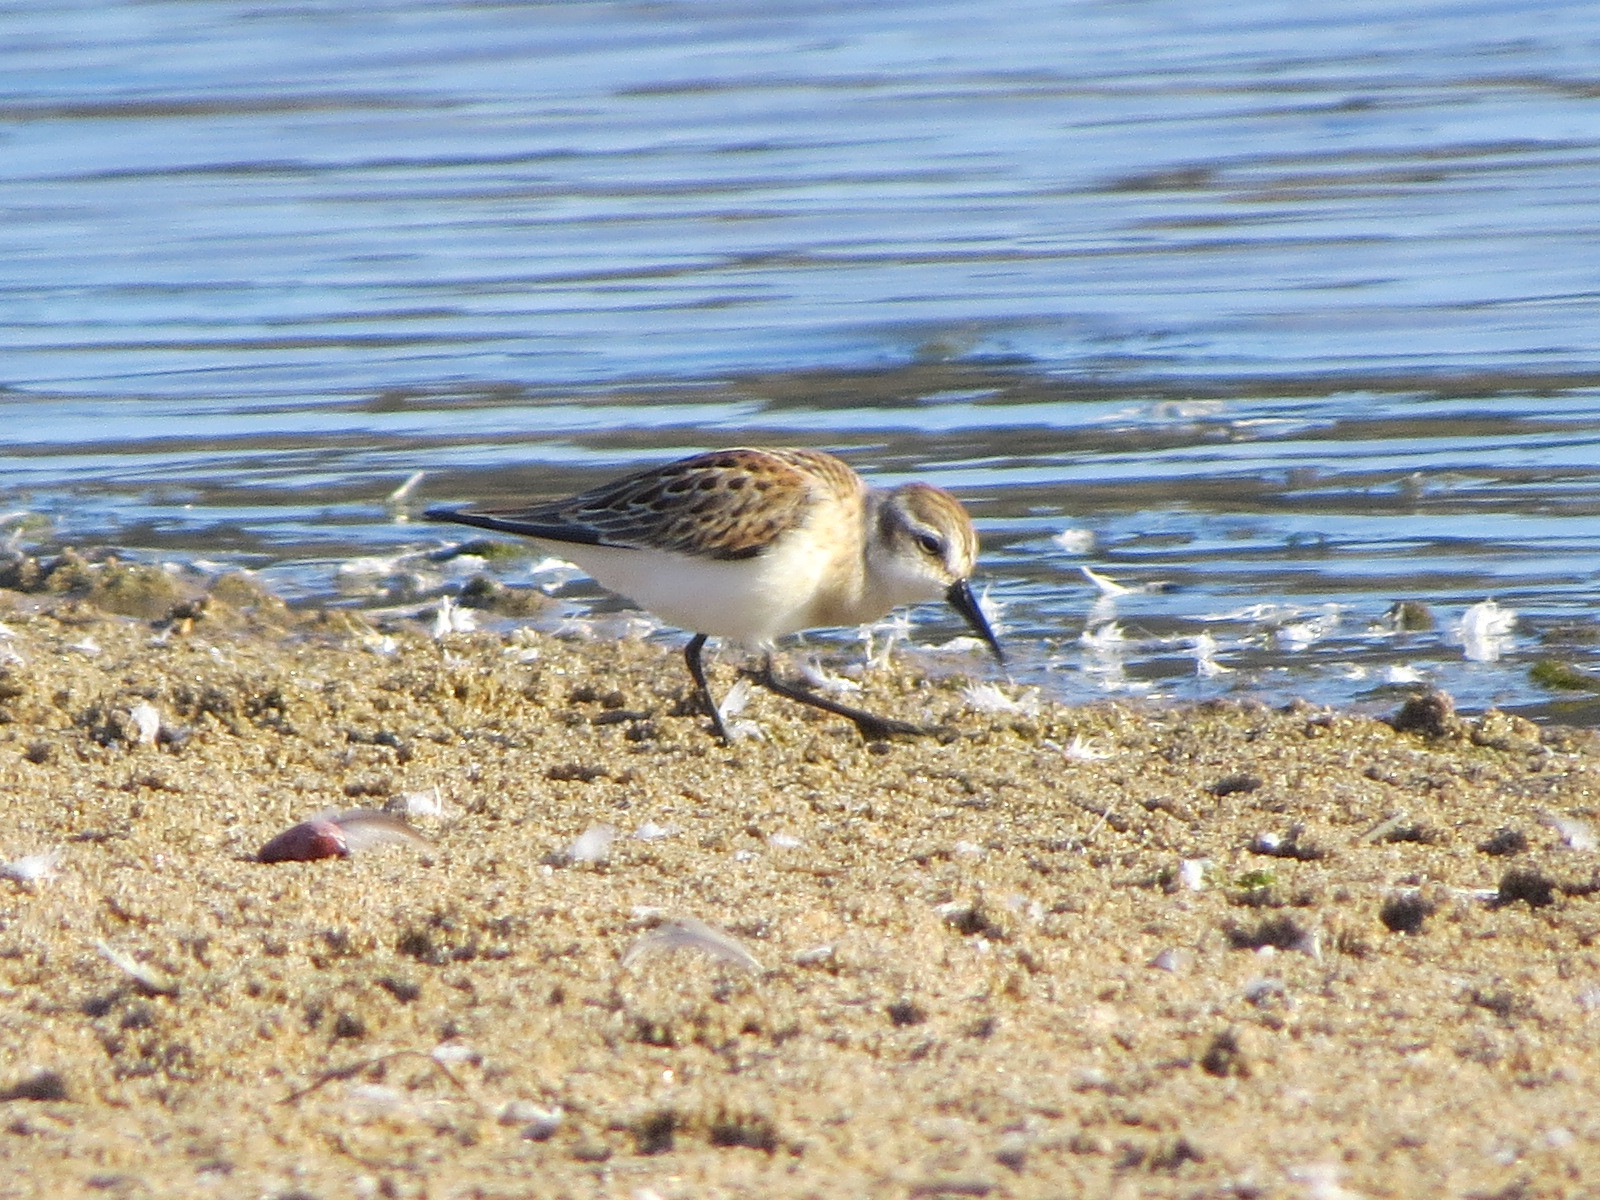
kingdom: Animalia
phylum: Chordata
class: Aves
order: Charadriiformes
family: Scolopacidae
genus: Calidris
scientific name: Calidris mauri
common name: Western sandpiper
